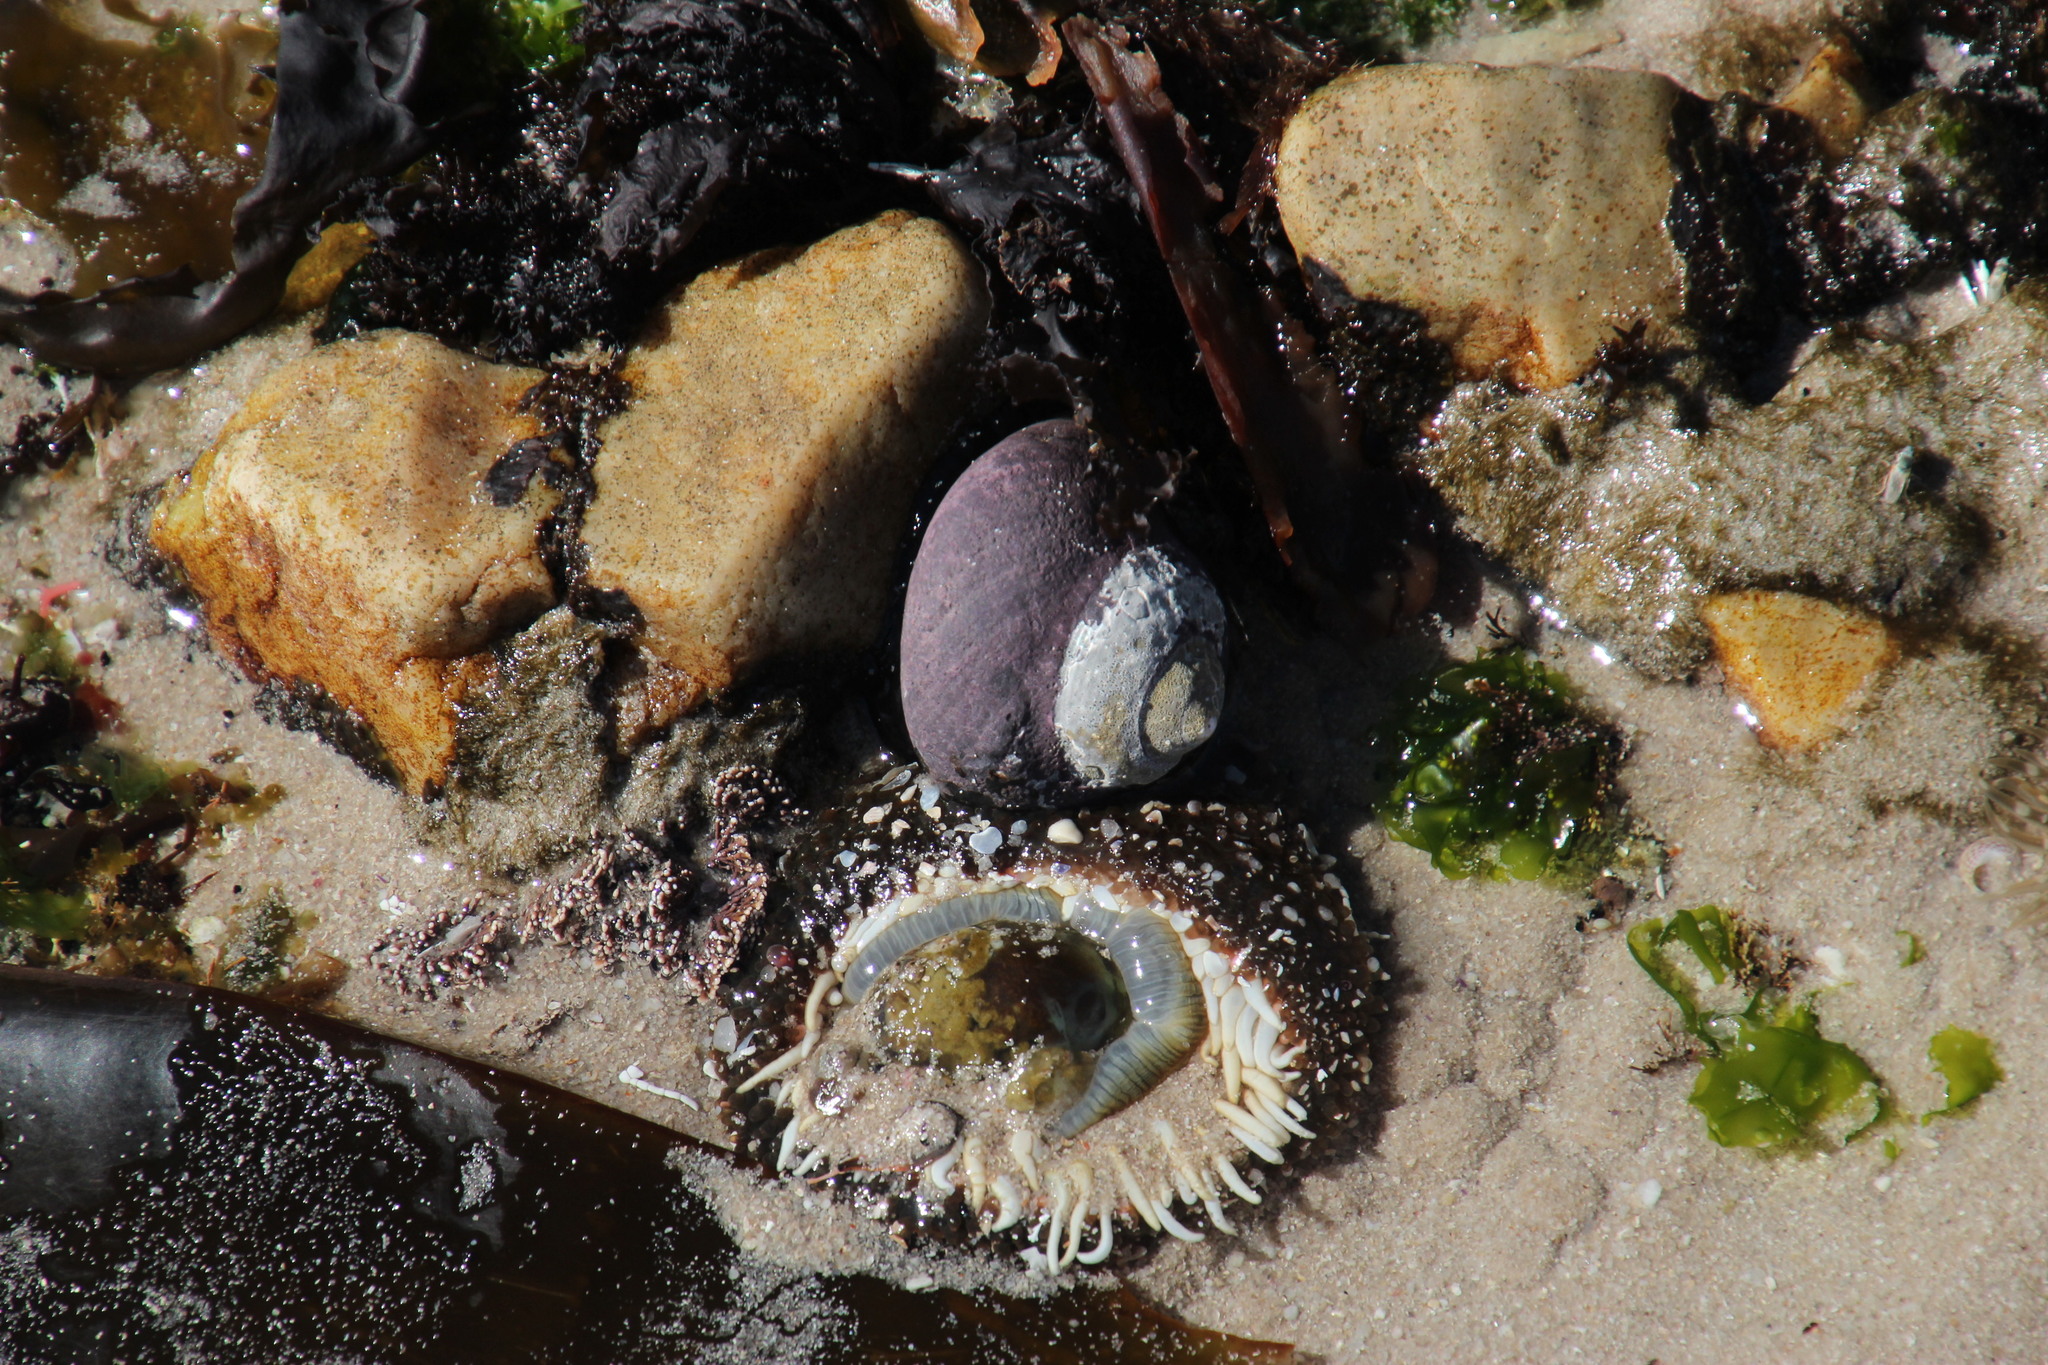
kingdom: Animalia
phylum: Mollusca
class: Gastropoda
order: Trochida
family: Trochidae
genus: Oxystele
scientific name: Oxystele sinensis
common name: Pink-lipped topshell
